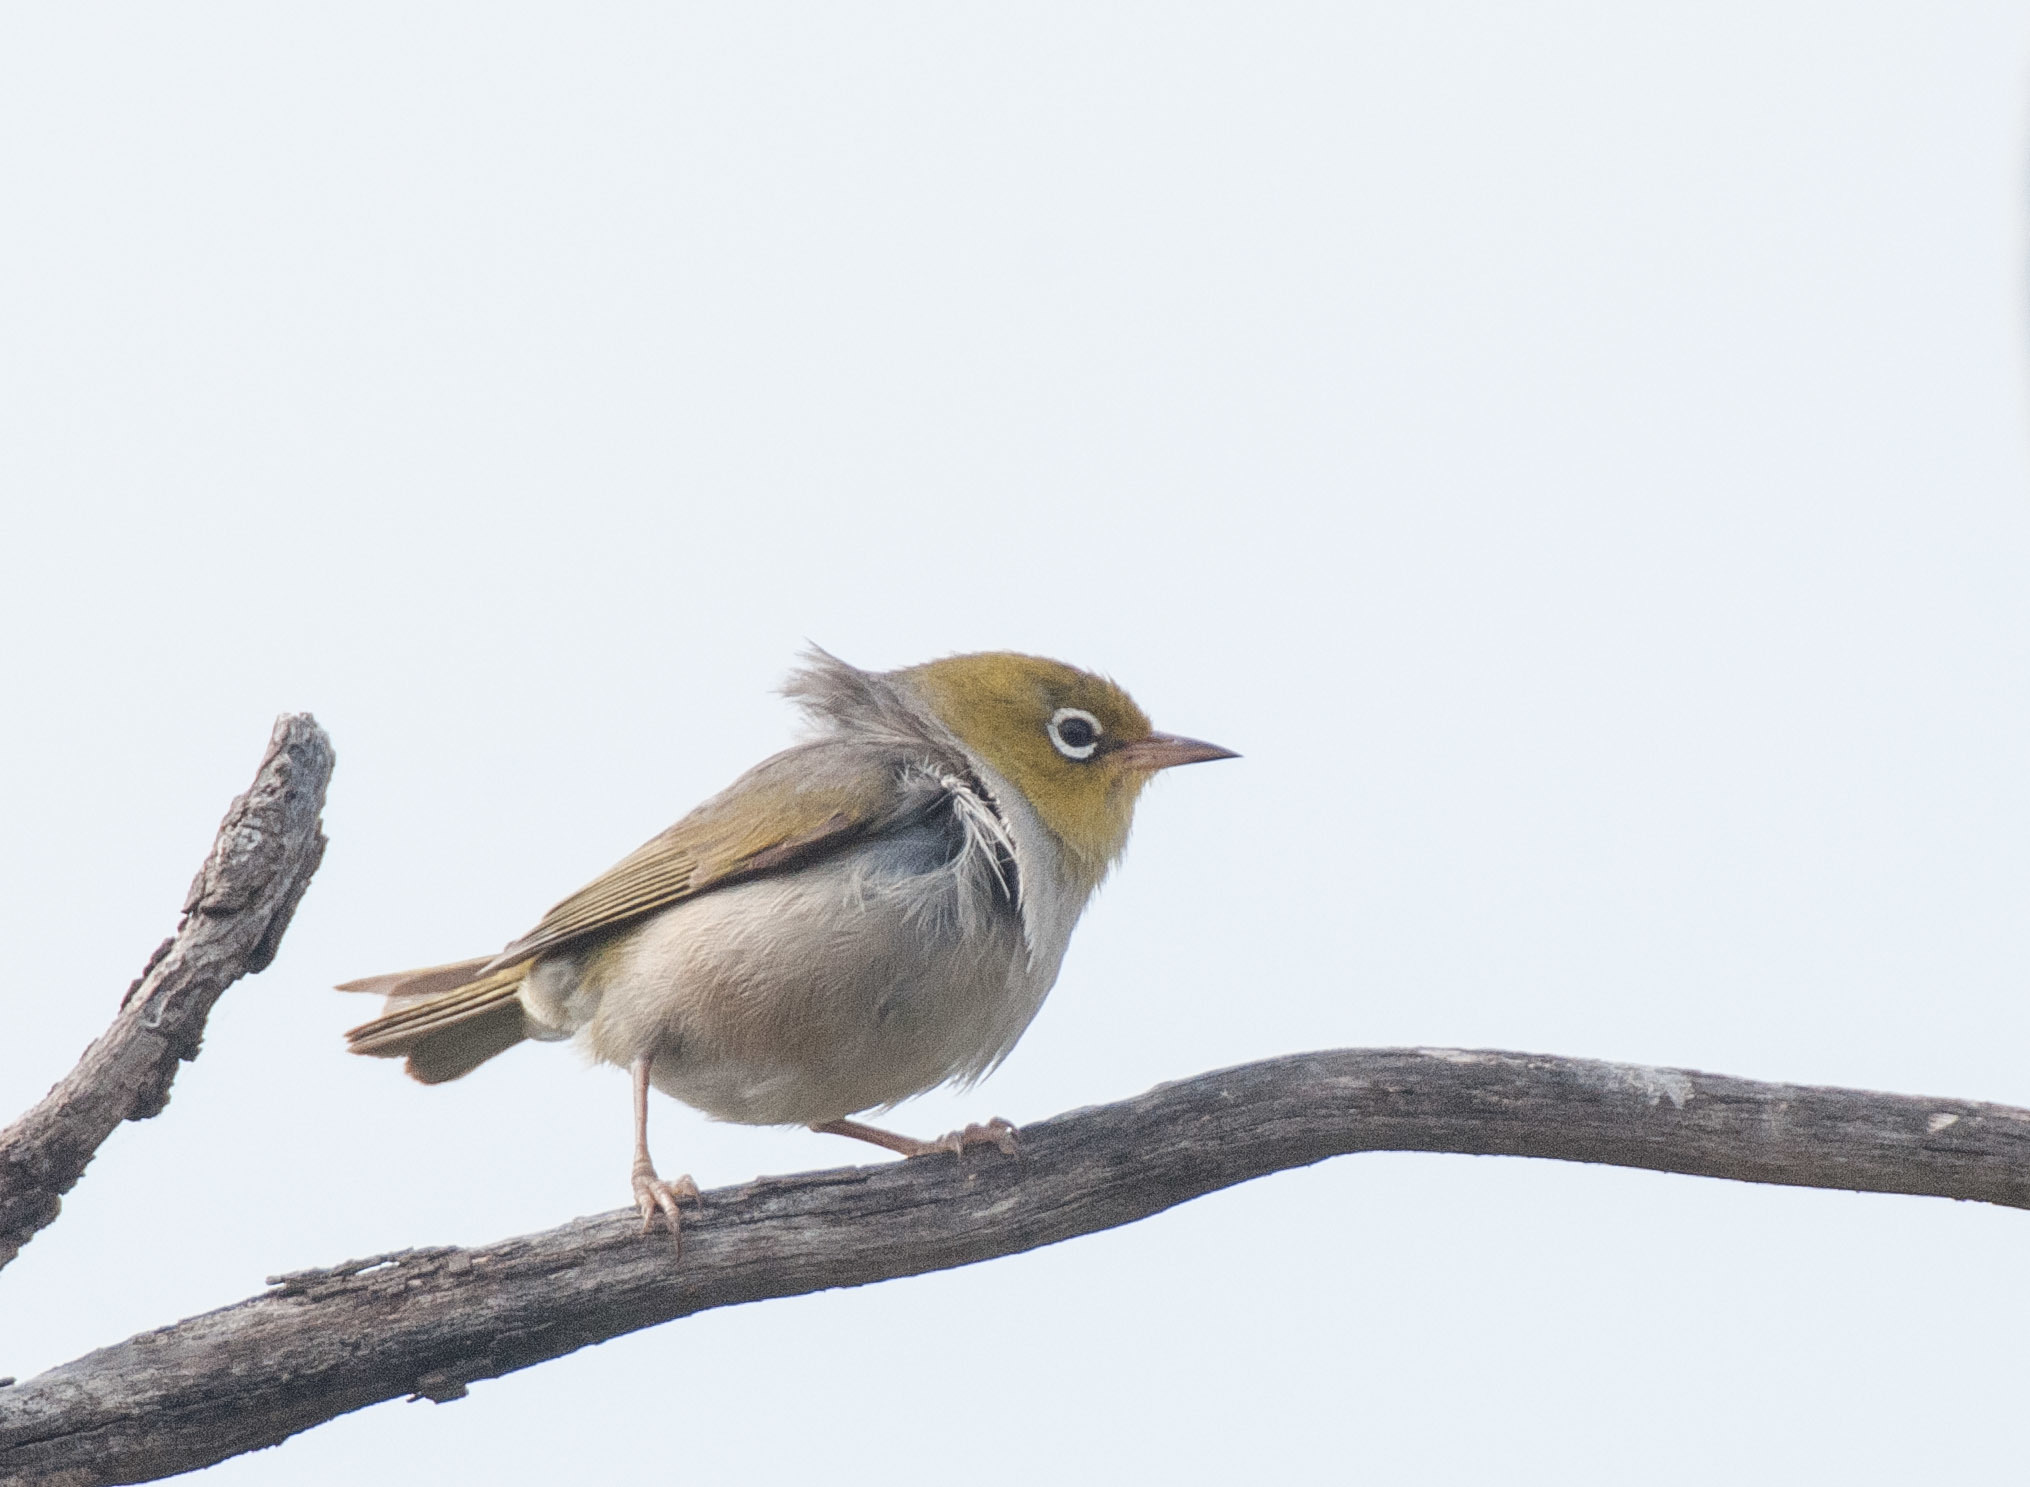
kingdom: Animalia
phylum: Chordata
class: Aves
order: Passeriformes
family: Zosteropidae
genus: Zosterops
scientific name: Zosterops lateralis
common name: Silvereye
